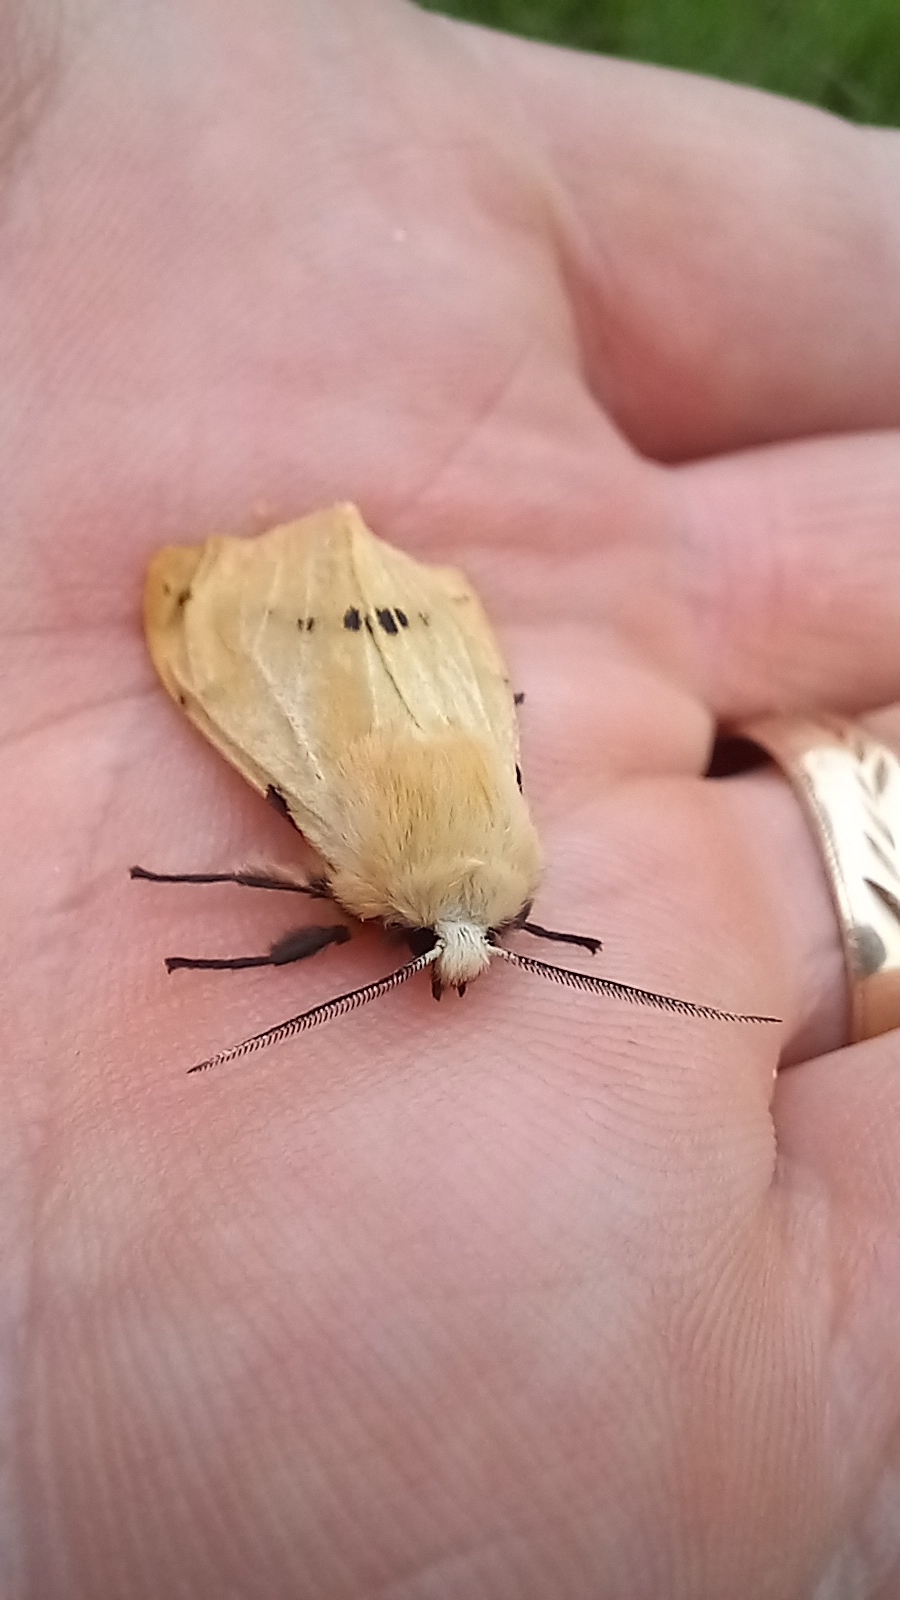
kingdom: Animalia
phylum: Arthropoda
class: Insecta
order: Lepidoptera
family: Erebidae
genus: Spilarctia
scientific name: Spilarctia lutea
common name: Buff ermine
